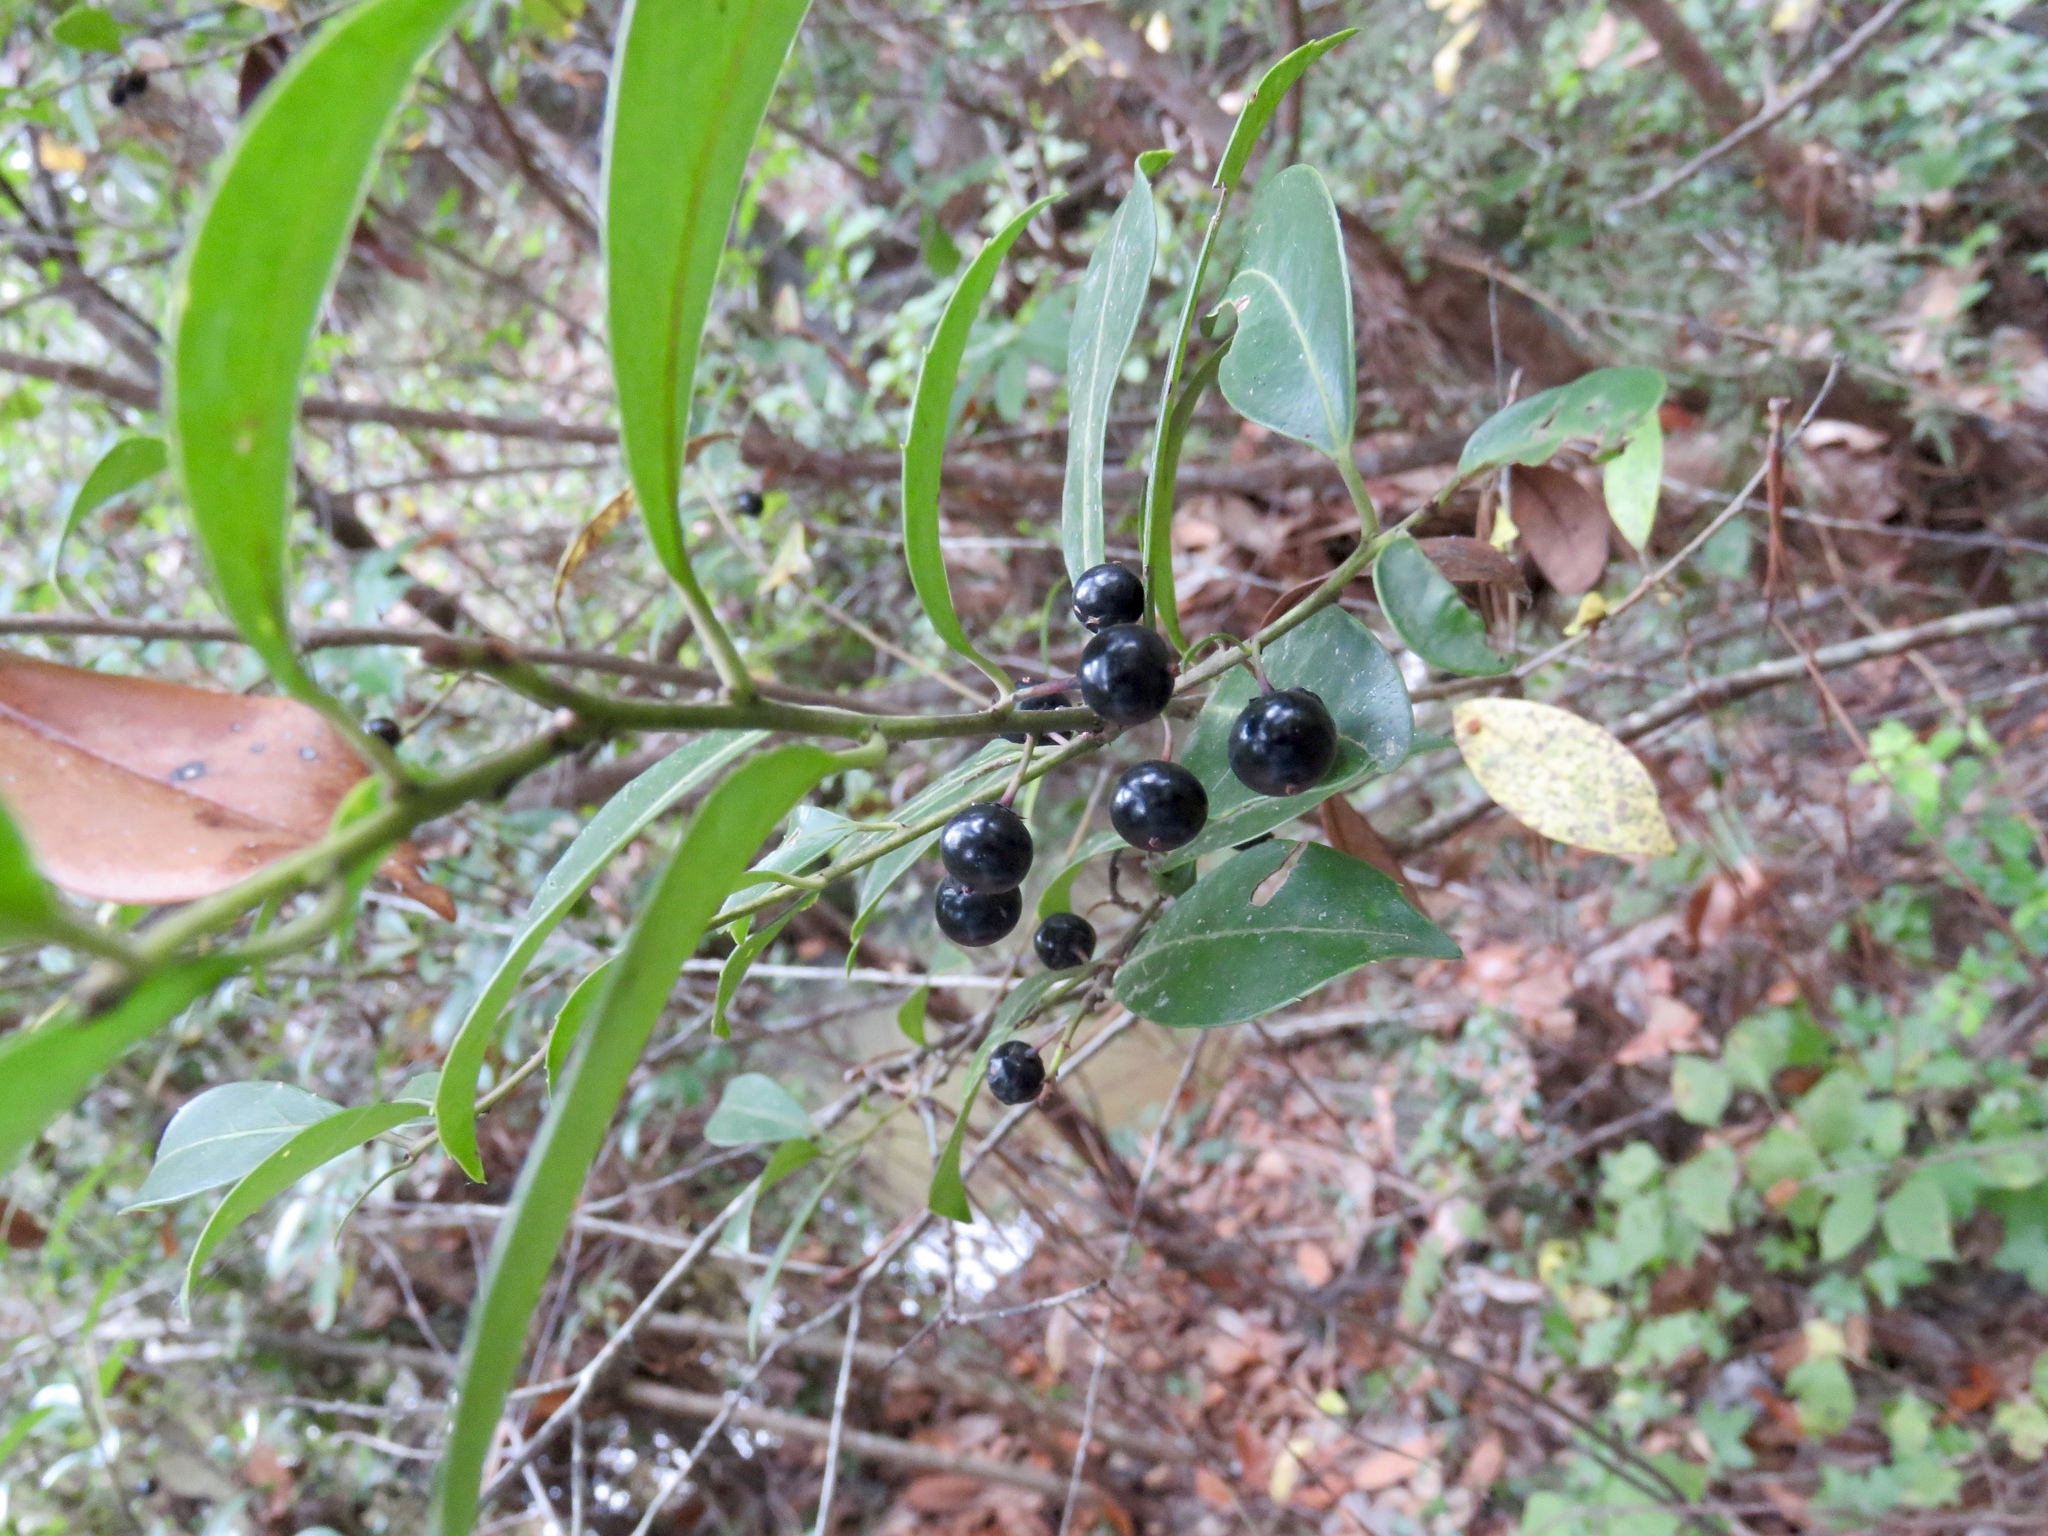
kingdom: Plantae
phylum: Tracheophyta
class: Magnoliopsida
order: Aquifoliales
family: Aquifoliaceae
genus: Ilex
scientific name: Ilex coriacea
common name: Sweet gallberry
